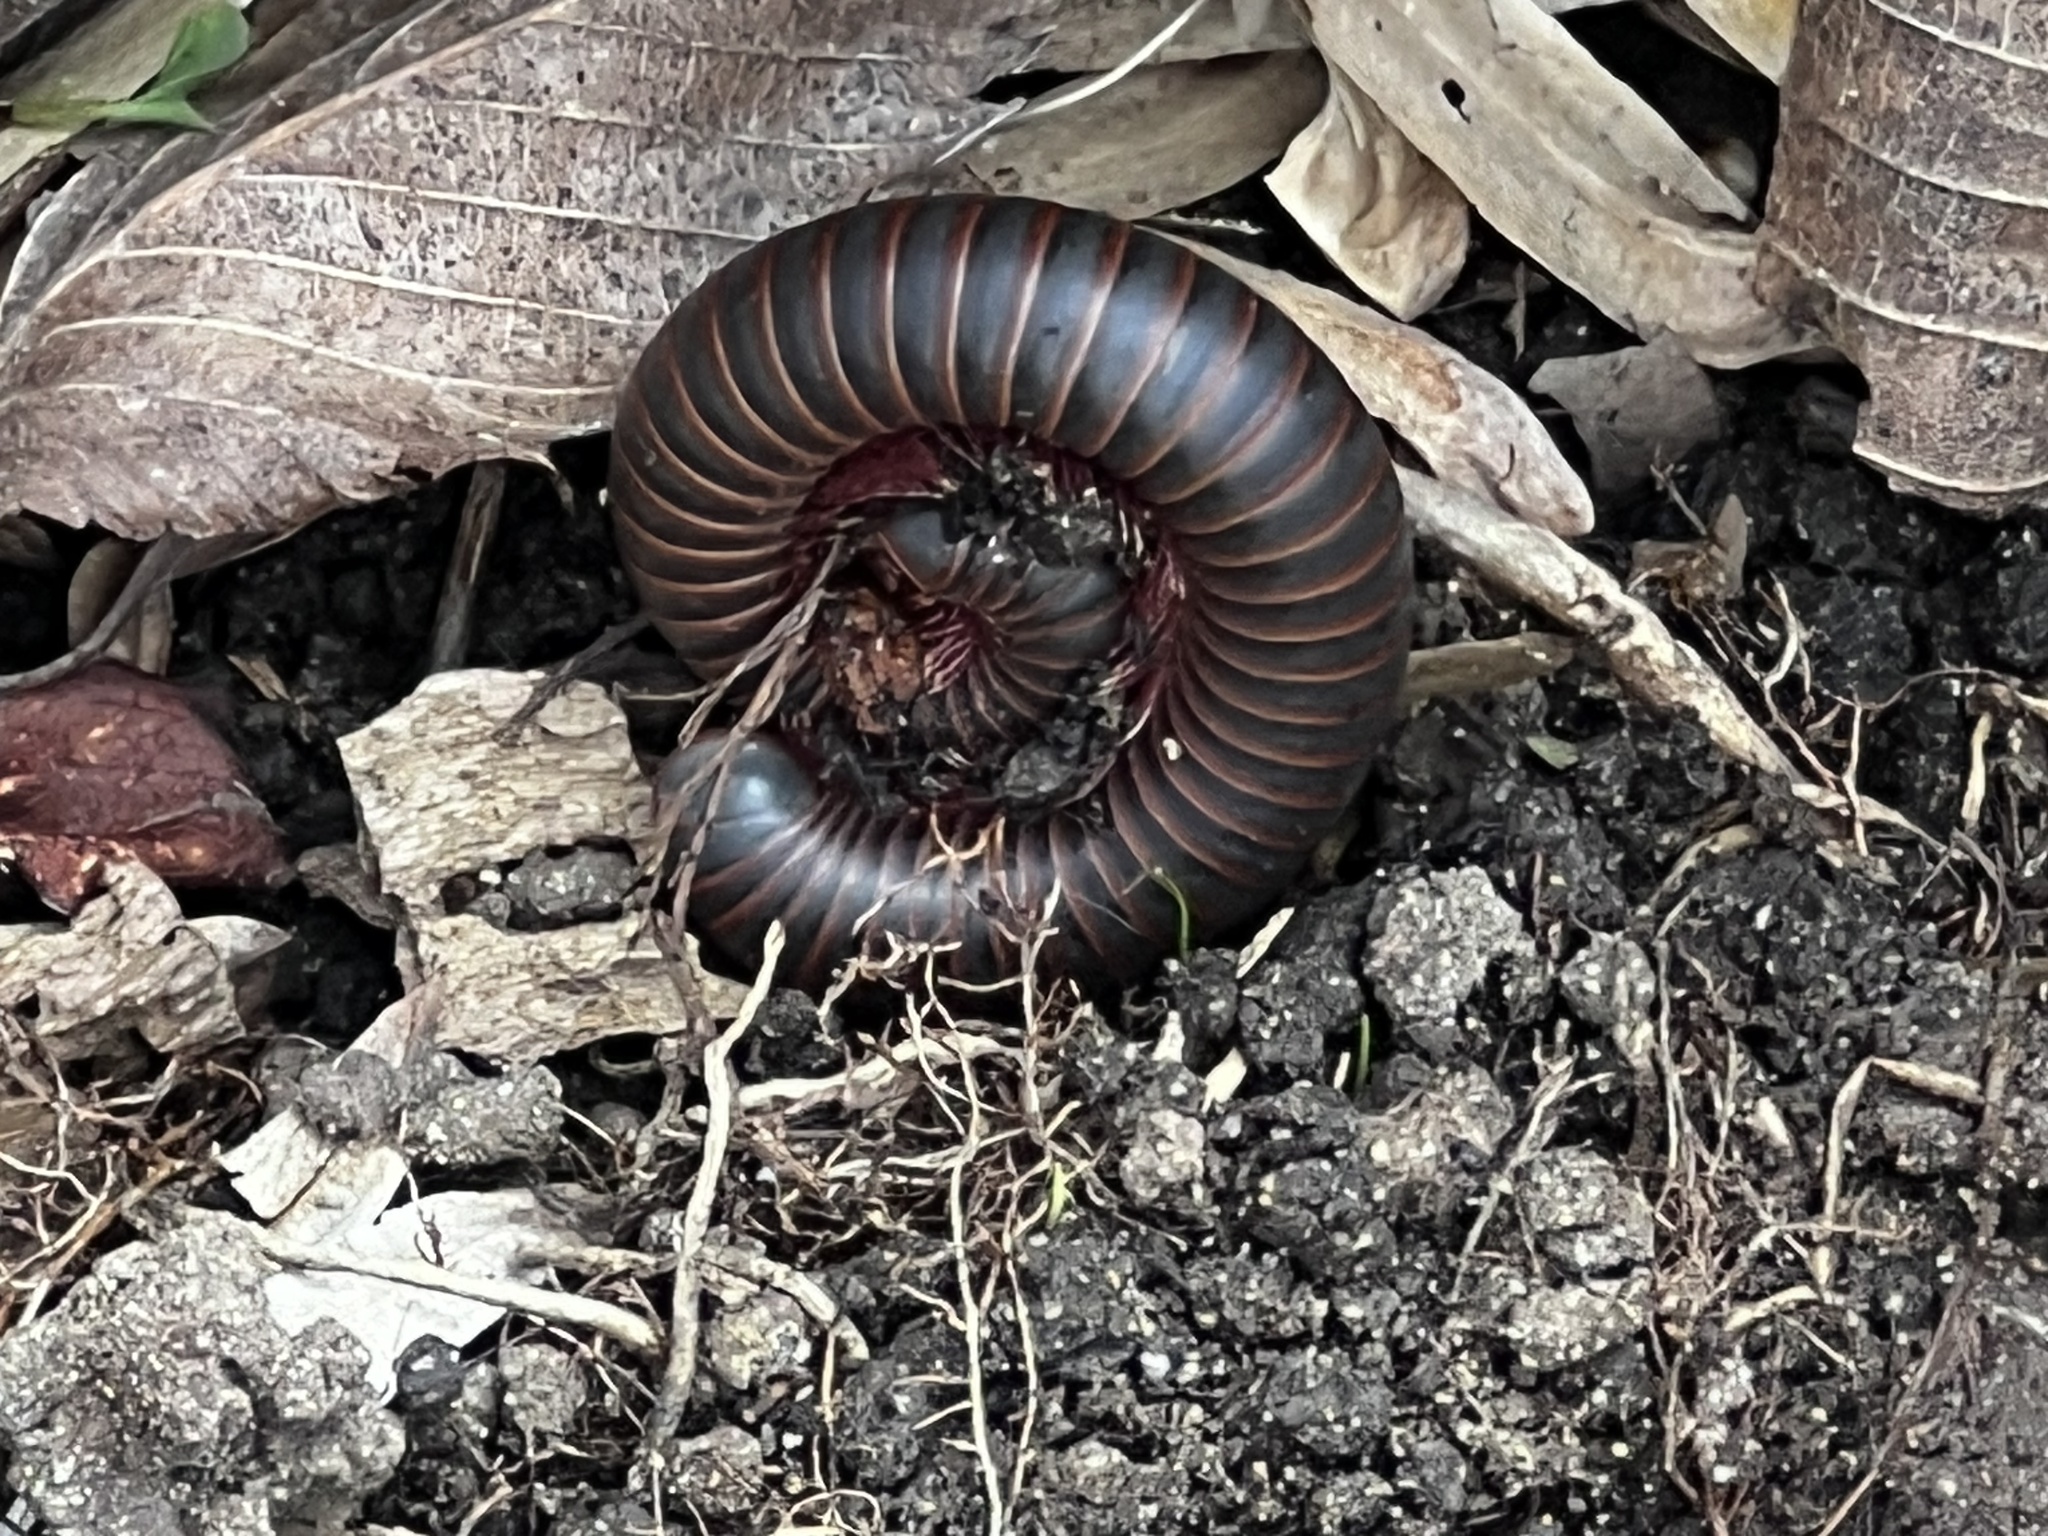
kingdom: Animalia
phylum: Arthropoda
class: Diplopoda
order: Spirobolida
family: Spirobolidae
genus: Narceus
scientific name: Narceus
